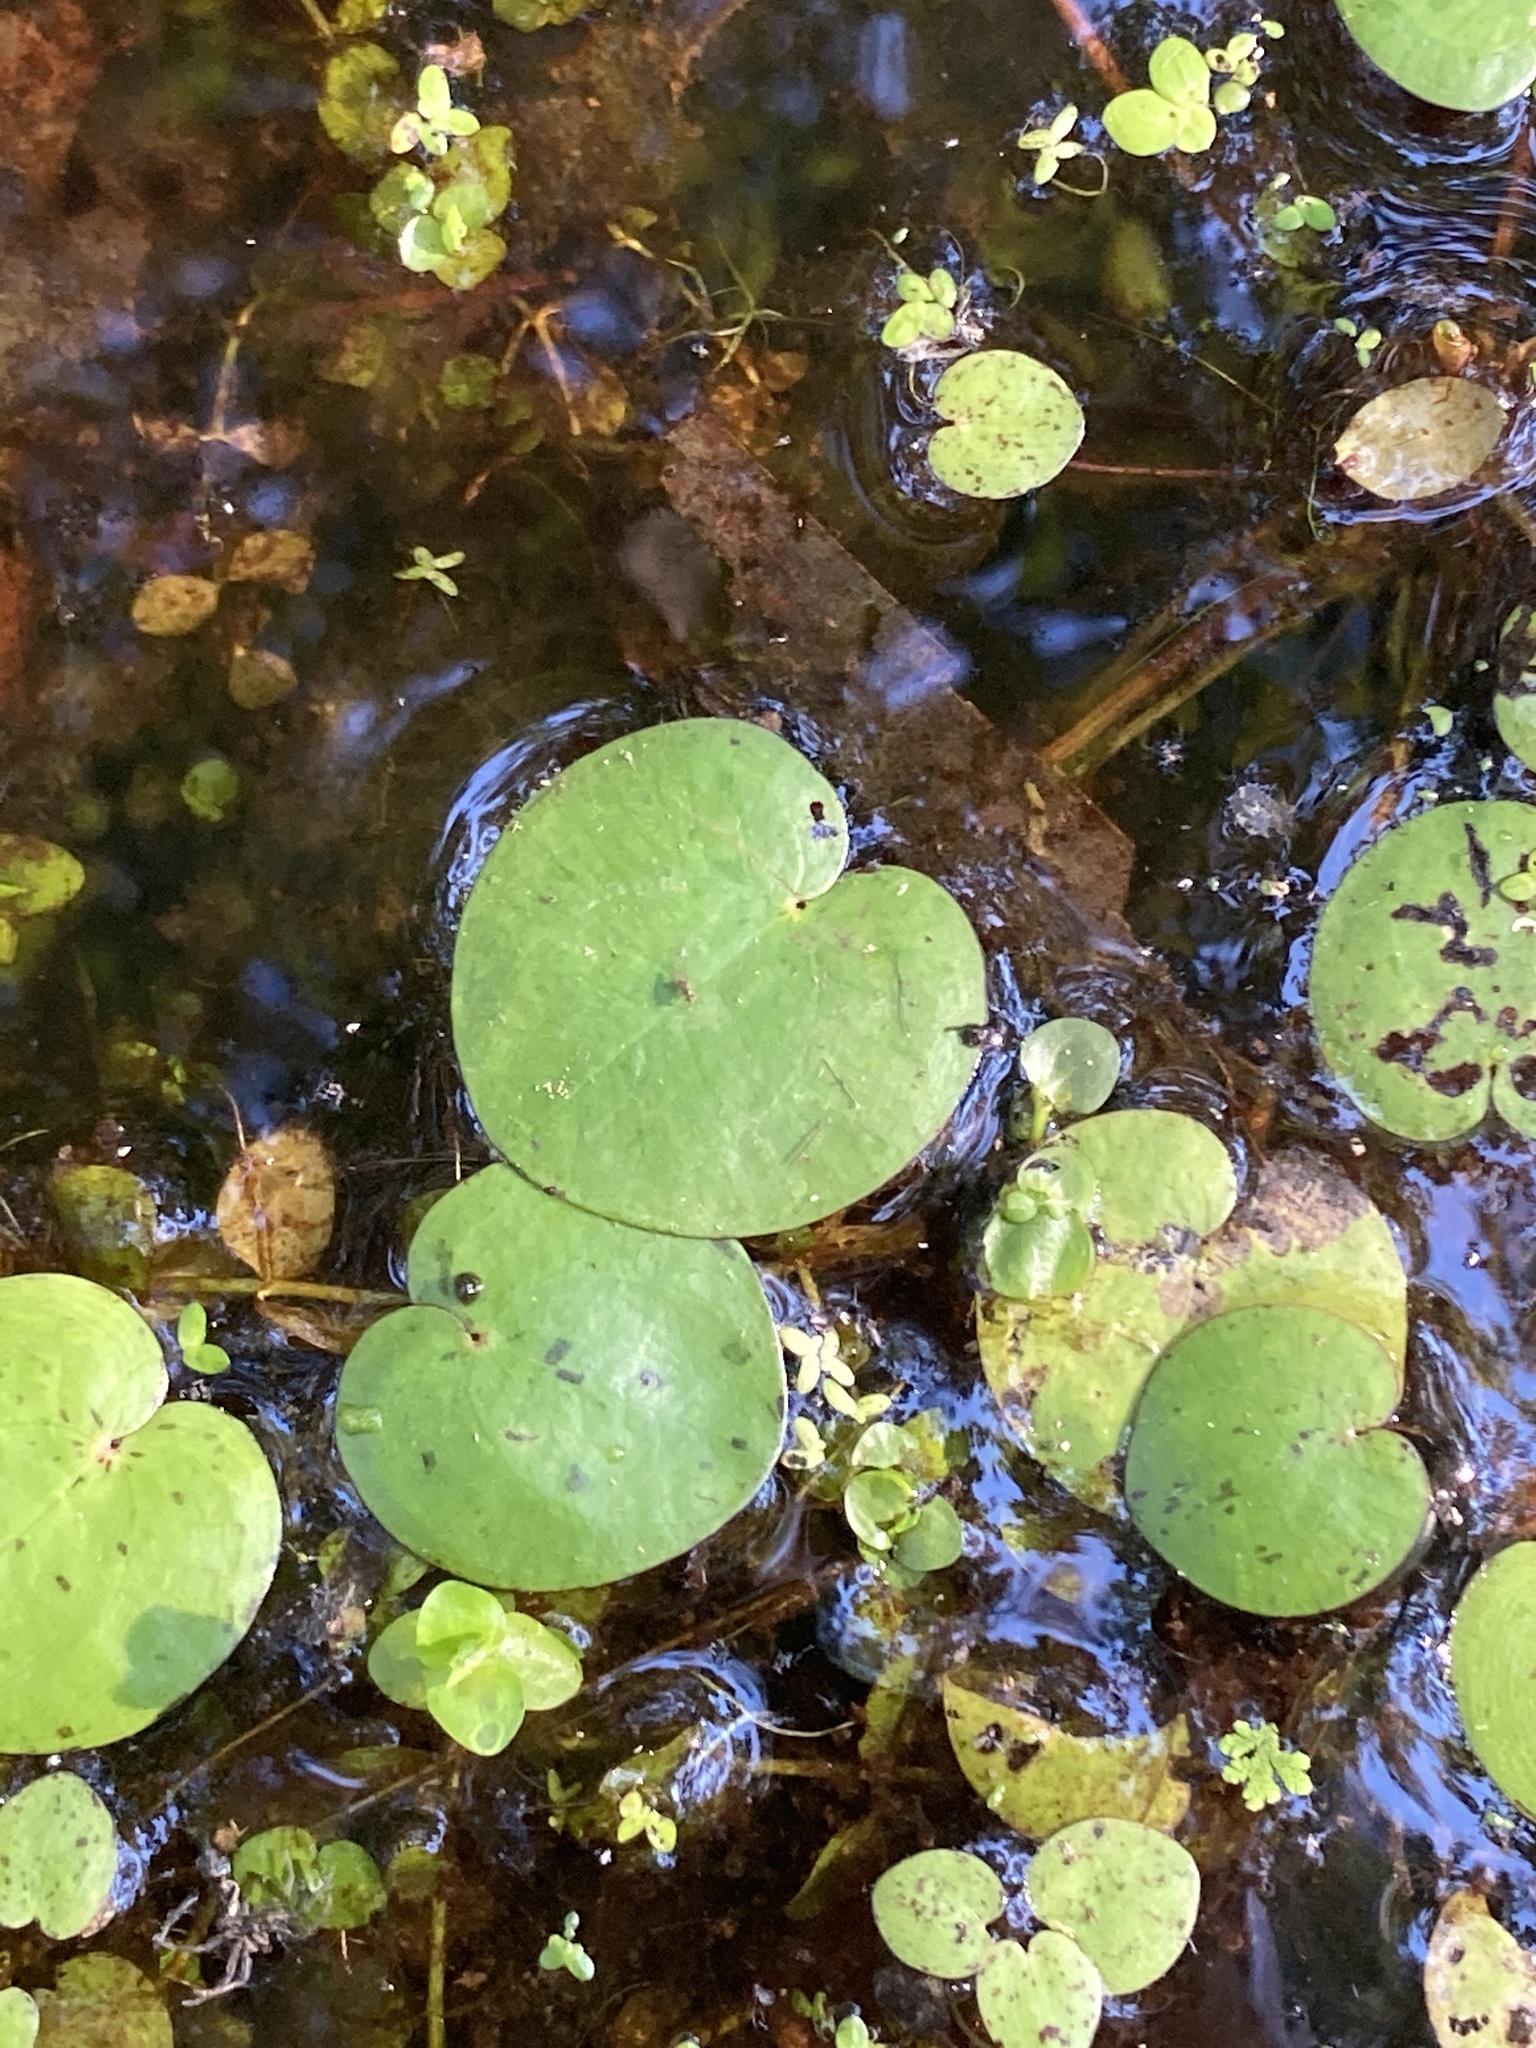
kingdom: Plantae
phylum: Tracheophyta
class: Liliopsida
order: Alismatales
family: Hydrocharitaceae
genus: Hydrocharis
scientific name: Hydrocharis spongia
